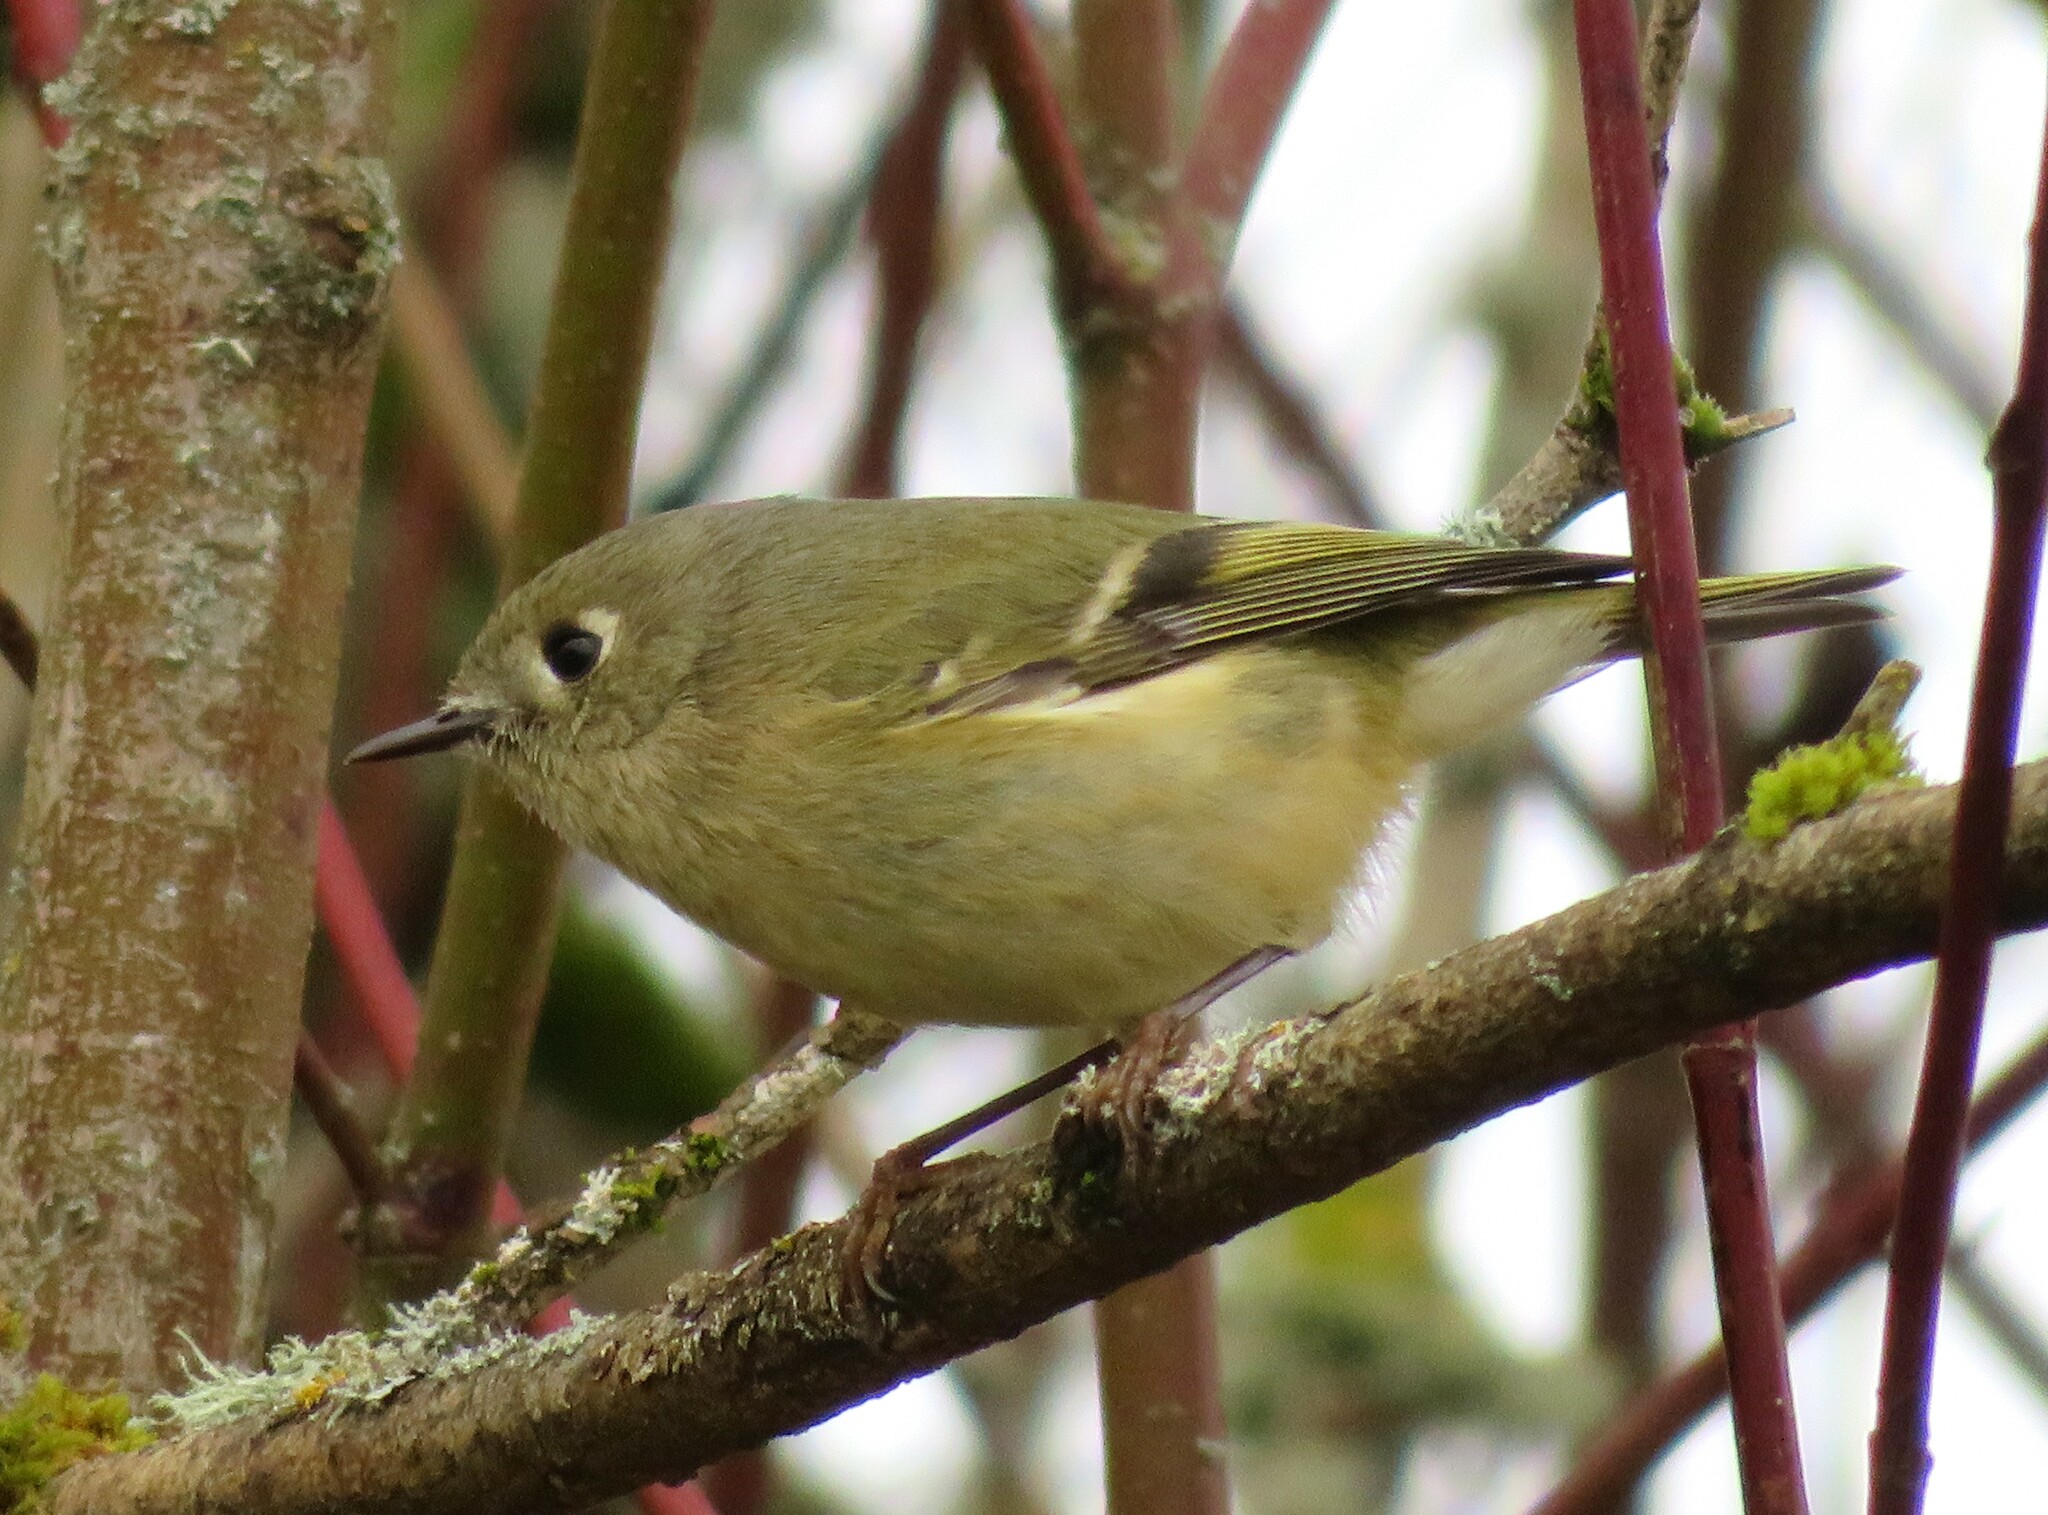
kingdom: Animalia
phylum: Chordata
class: Aves
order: Passeriformes
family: Regulidae
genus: Regulus
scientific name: Regulus calendula
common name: Ruby-crowned kinglet
